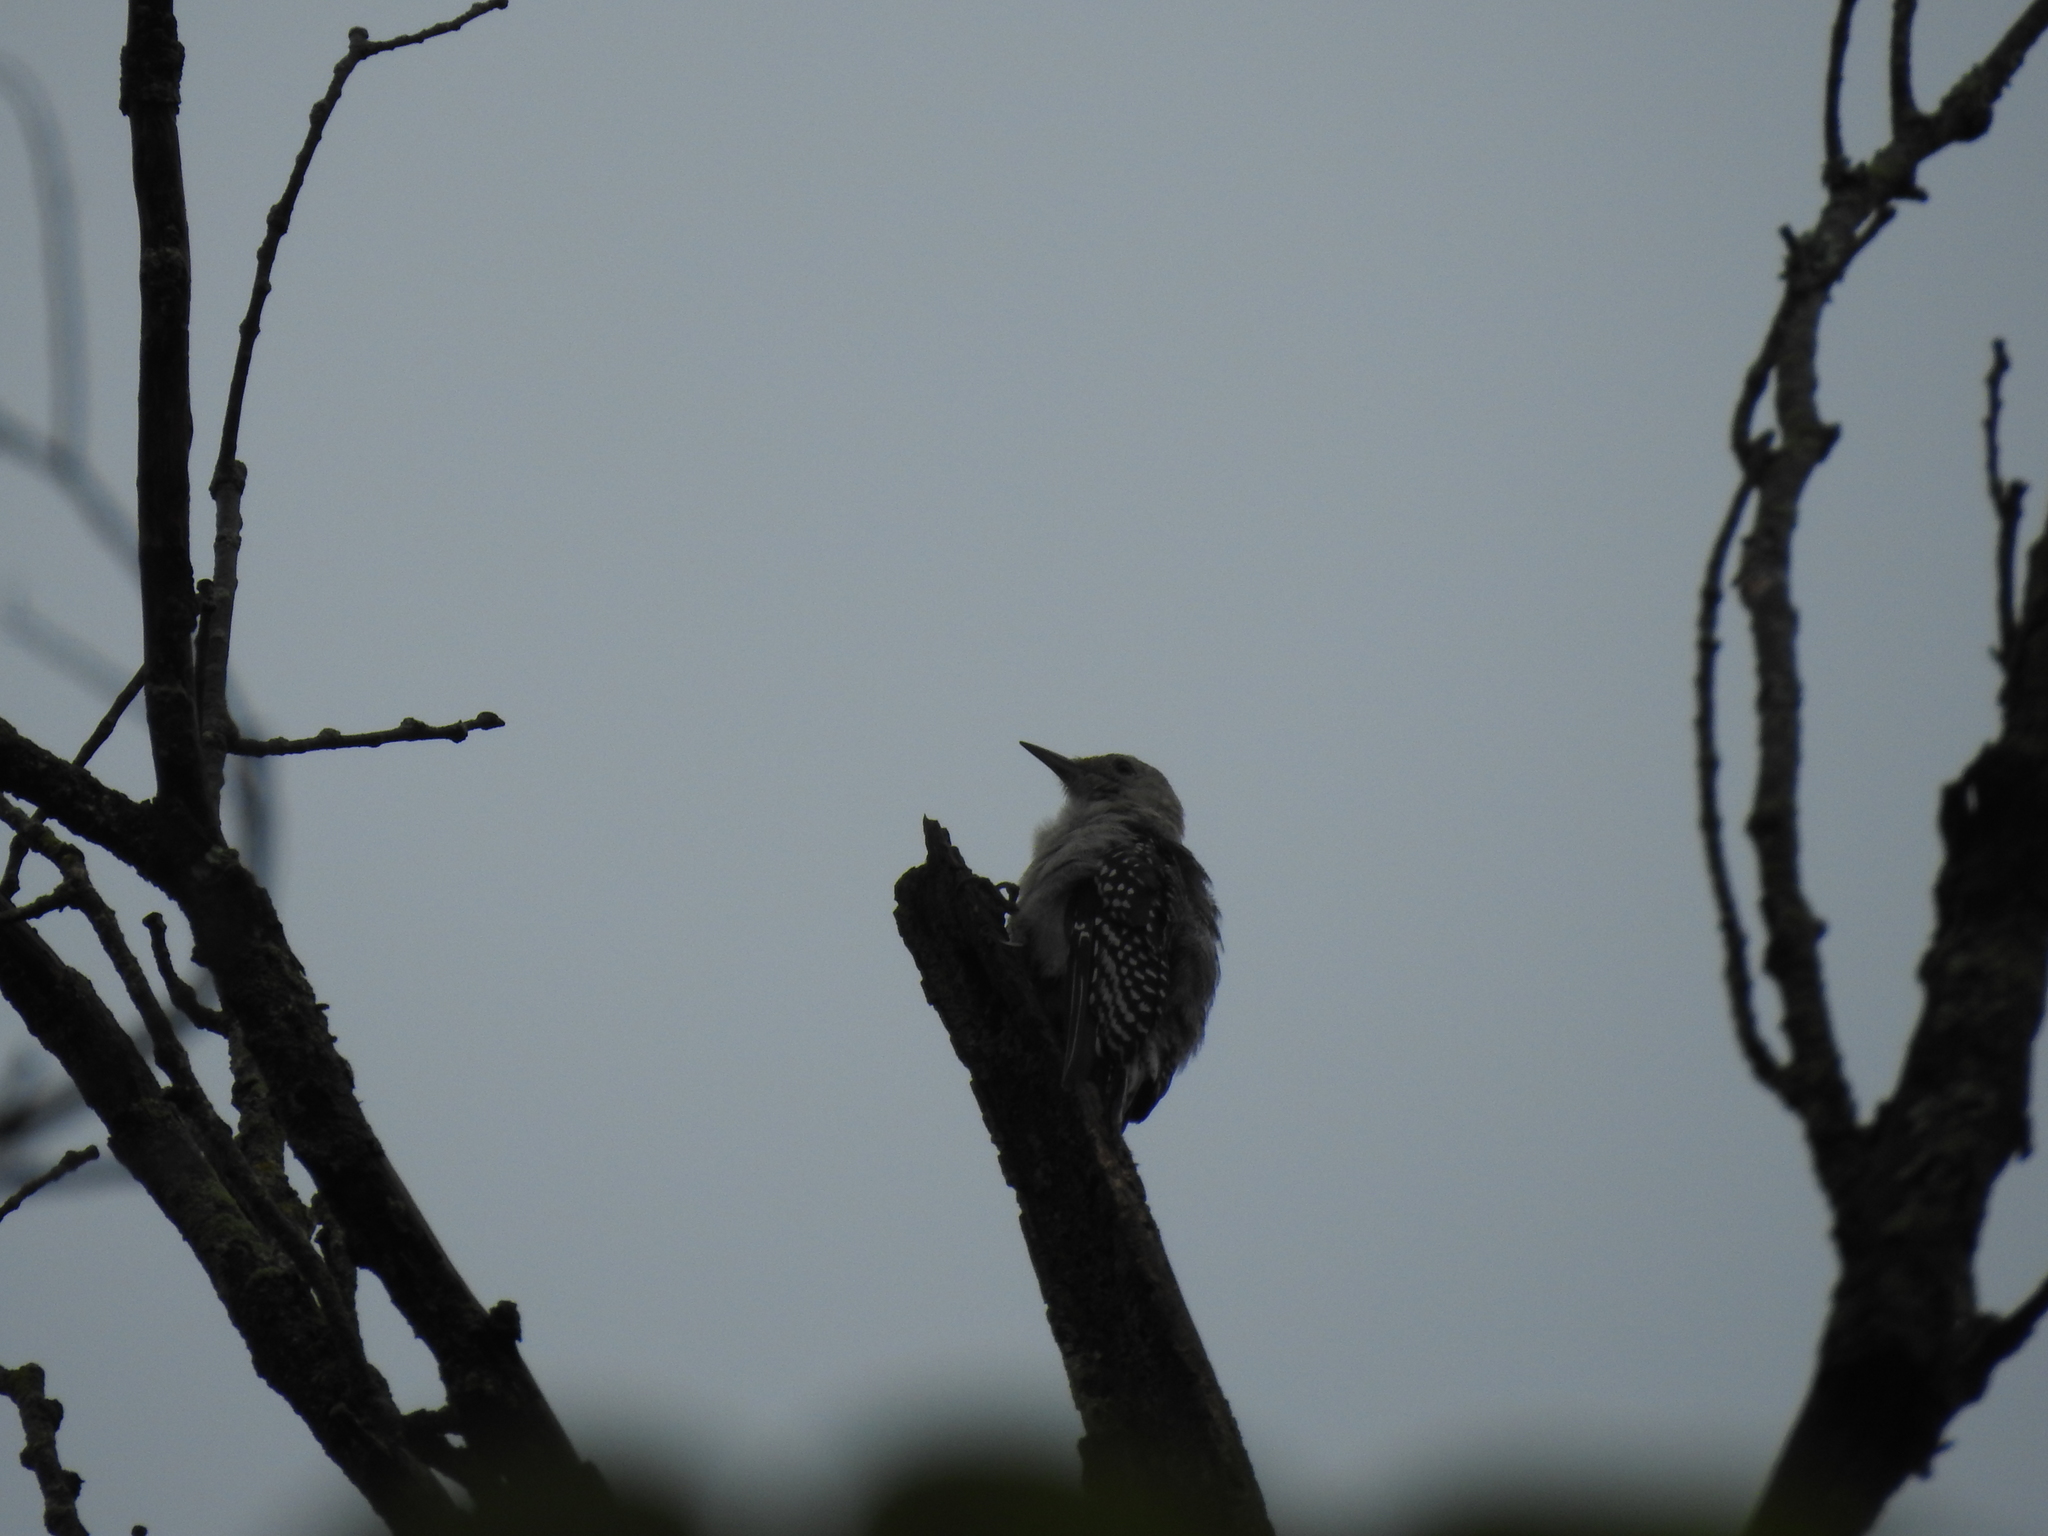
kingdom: Animalia
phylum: Chordata
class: Aves
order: Piciformes
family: Picidae
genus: Melanerpes
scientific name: Melanerpes carolinus
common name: Red-bellied woodpecker
